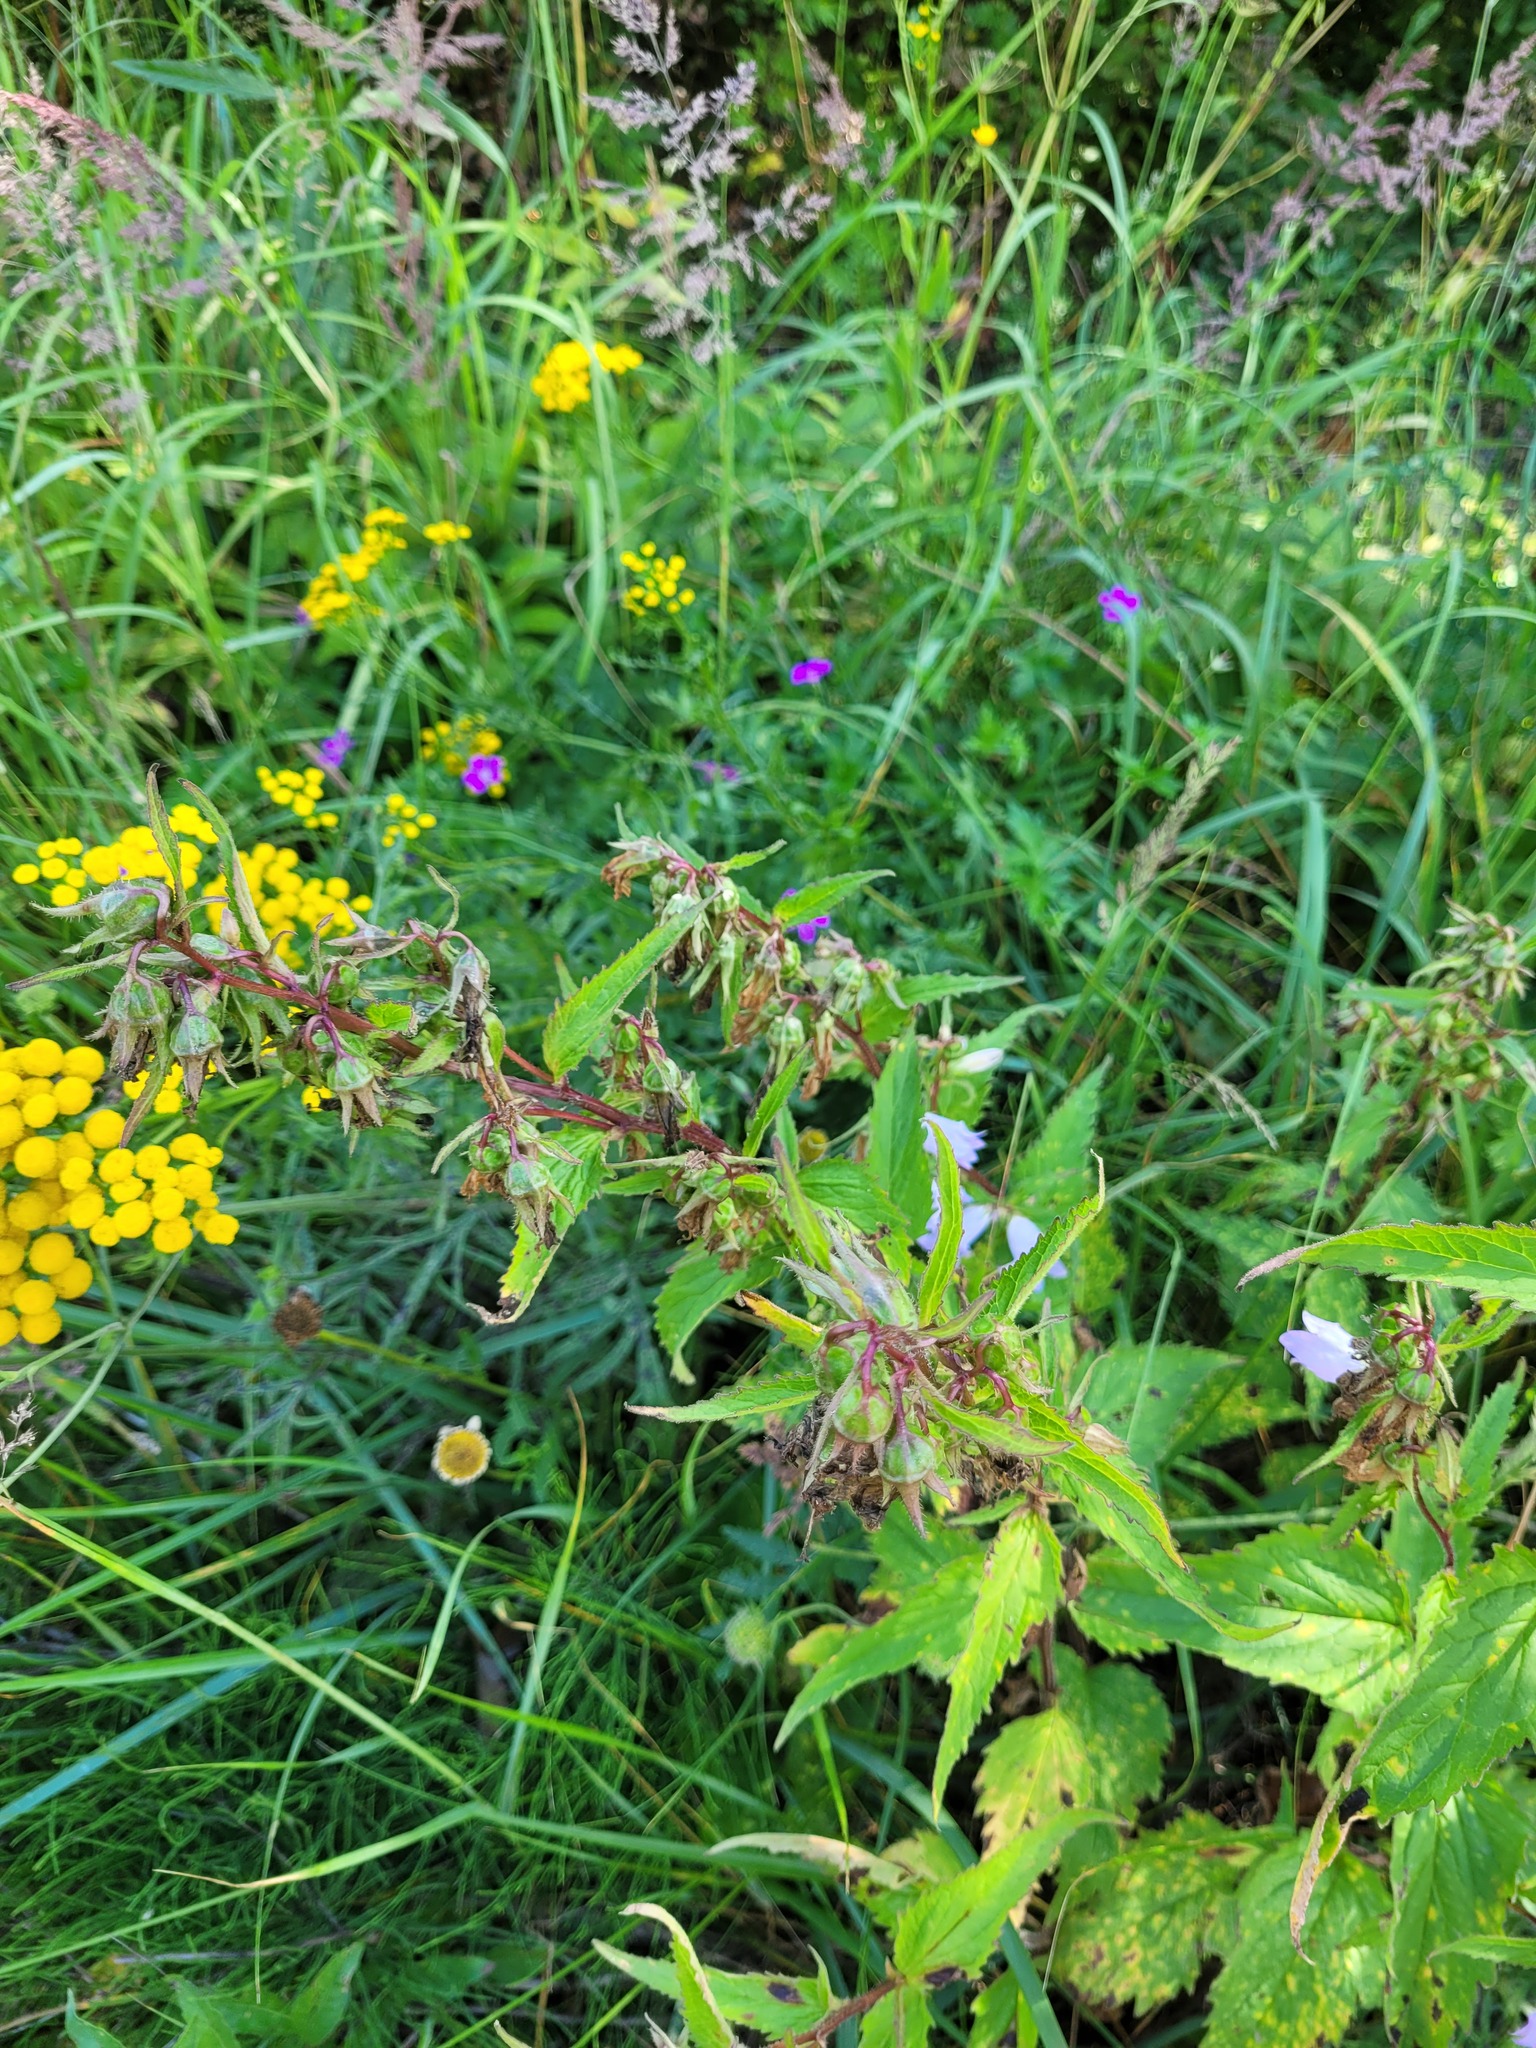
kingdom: Plantae
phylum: Tracheophyta
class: Magnoliopsida
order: Asterales
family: Campanulaceae
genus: Campanula
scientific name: Campanula trachelium
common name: Nettle-leaved bellflower
